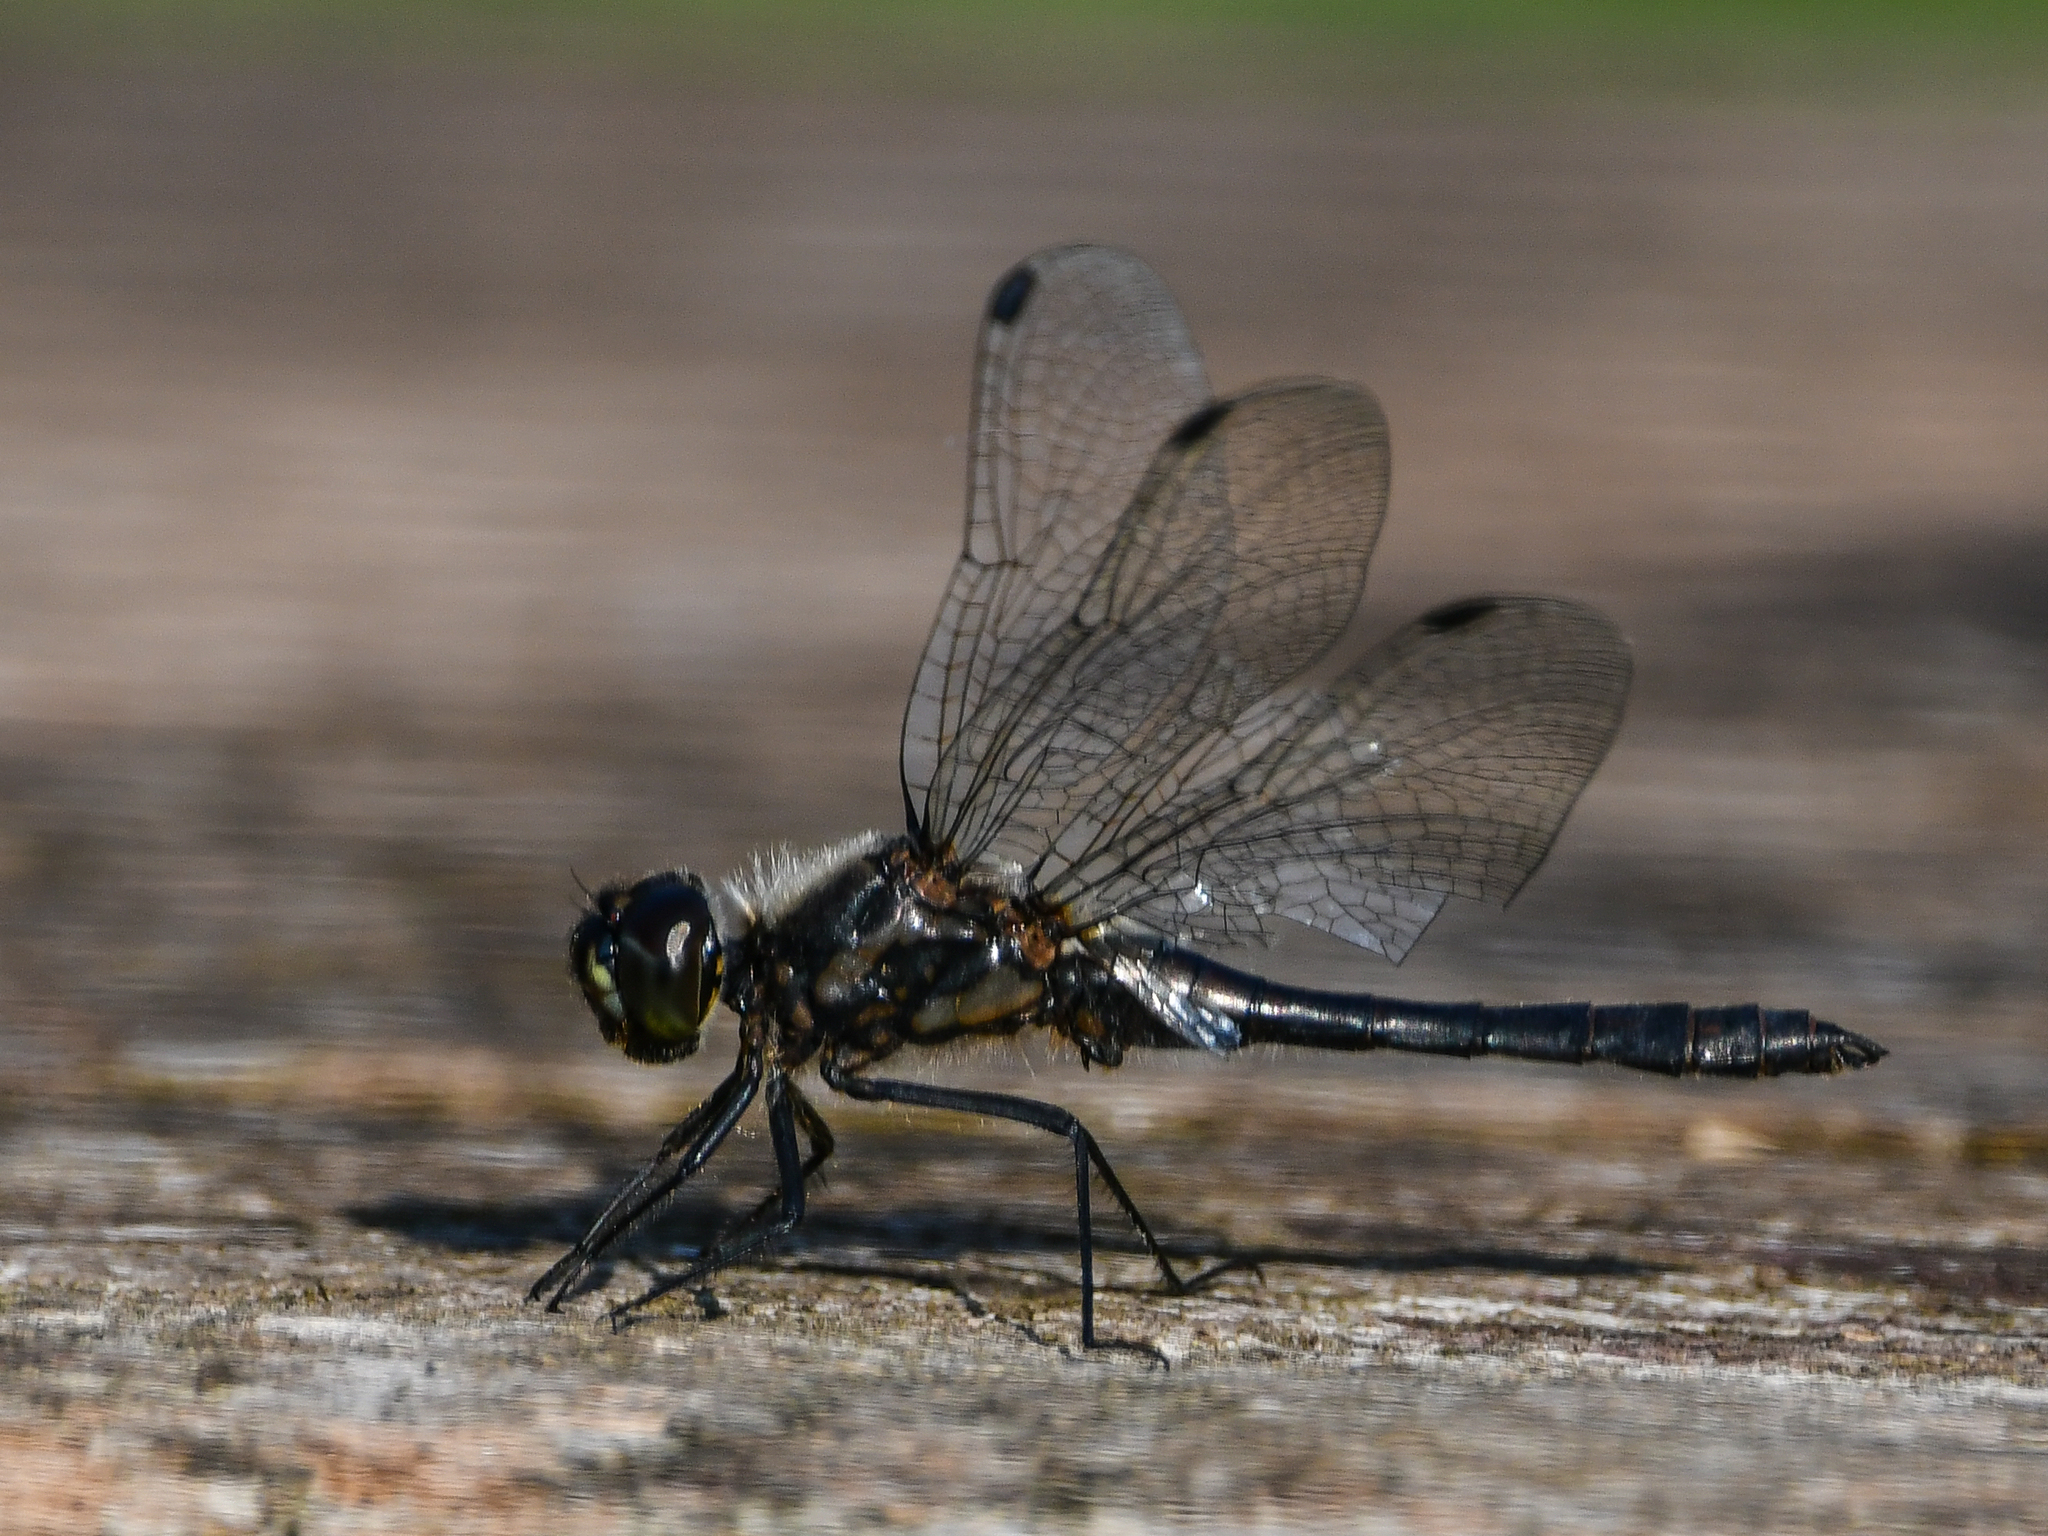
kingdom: Animalia
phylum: Arthropoda
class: Insecta
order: Odonata
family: Libellulidae
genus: Sympetrum
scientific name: Sympetrum danae
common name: Black darter
